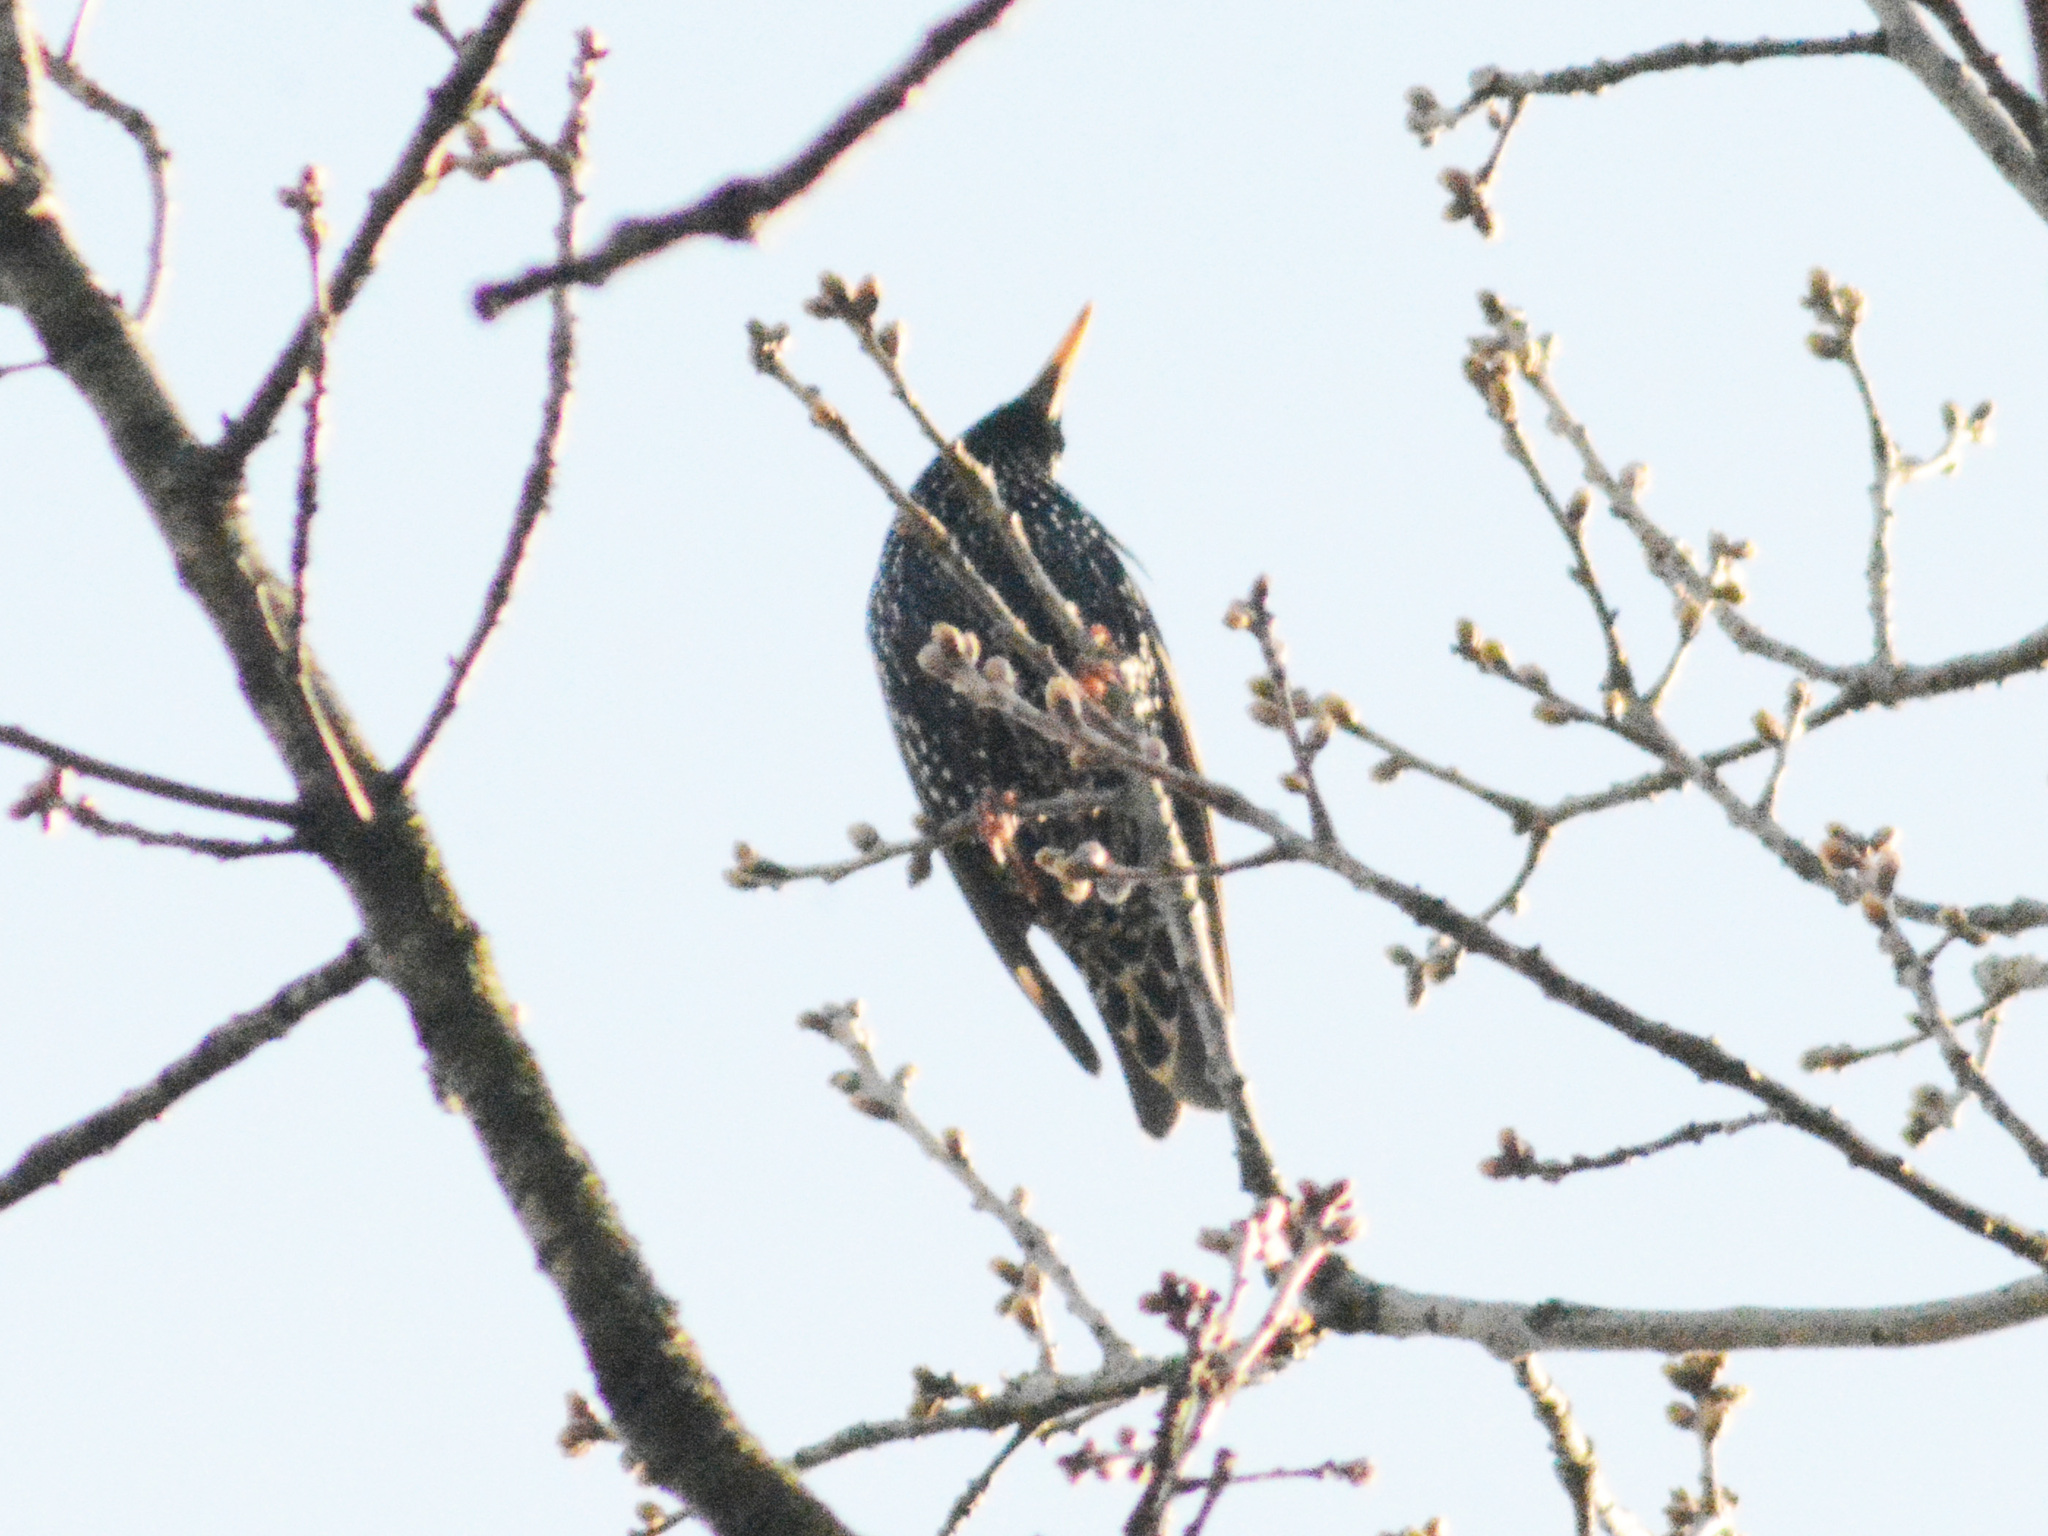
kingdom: Animalia
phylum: Chordata
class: Aves
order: Passeriformes
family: Sturnidae
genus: Sturnus
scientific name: Sturnus vulgaris
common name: Common starling
